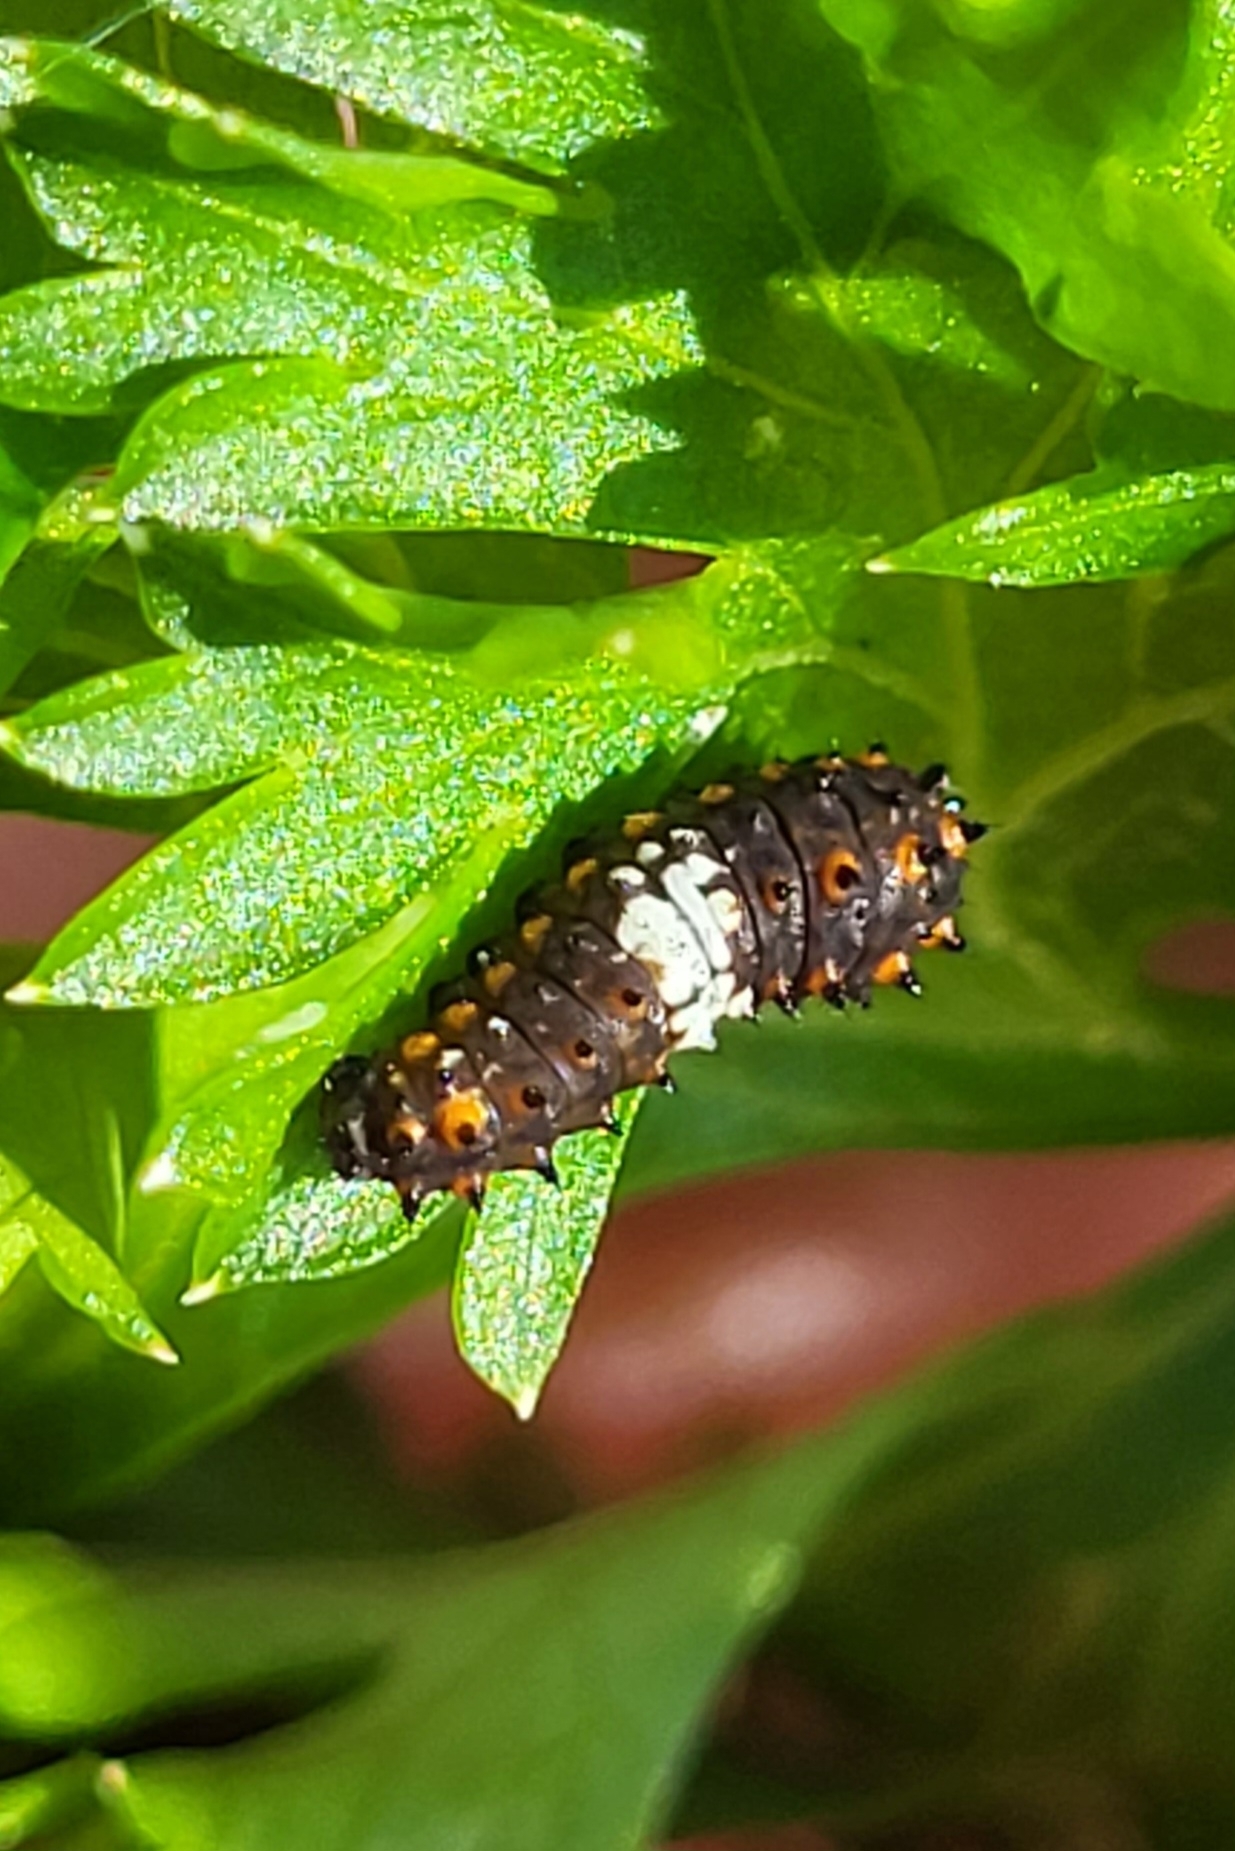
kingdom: Animalia
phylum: Arthropoda
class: Insecta
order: Lepidoptera
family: Papilionidae
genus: Papilio
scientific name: Papilio polyxenes
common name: Black swallowtail
